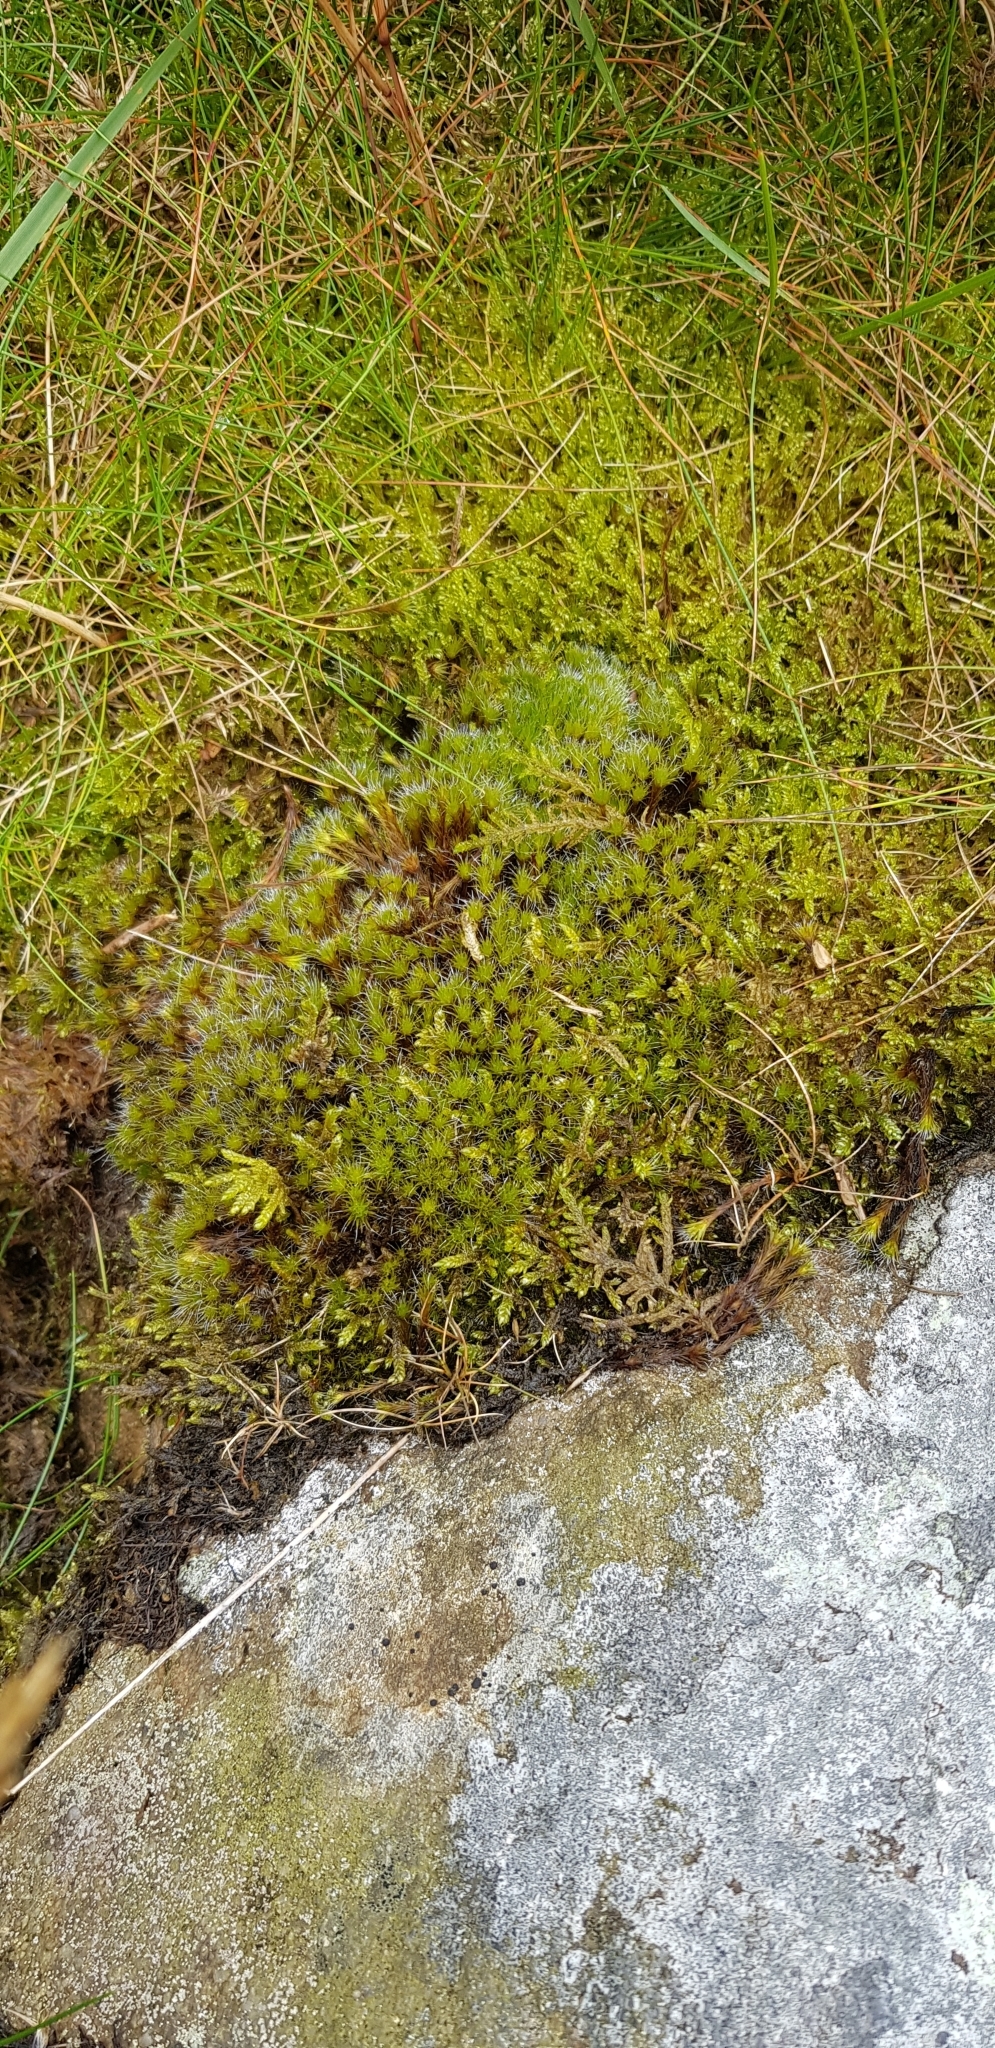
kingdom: Plantae
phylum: Bryophyta
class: Bryopsida
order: Dicranales
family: Leucobryaceae
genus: Campylopus
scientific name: Campylopus introflexus
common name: Heath star moss
